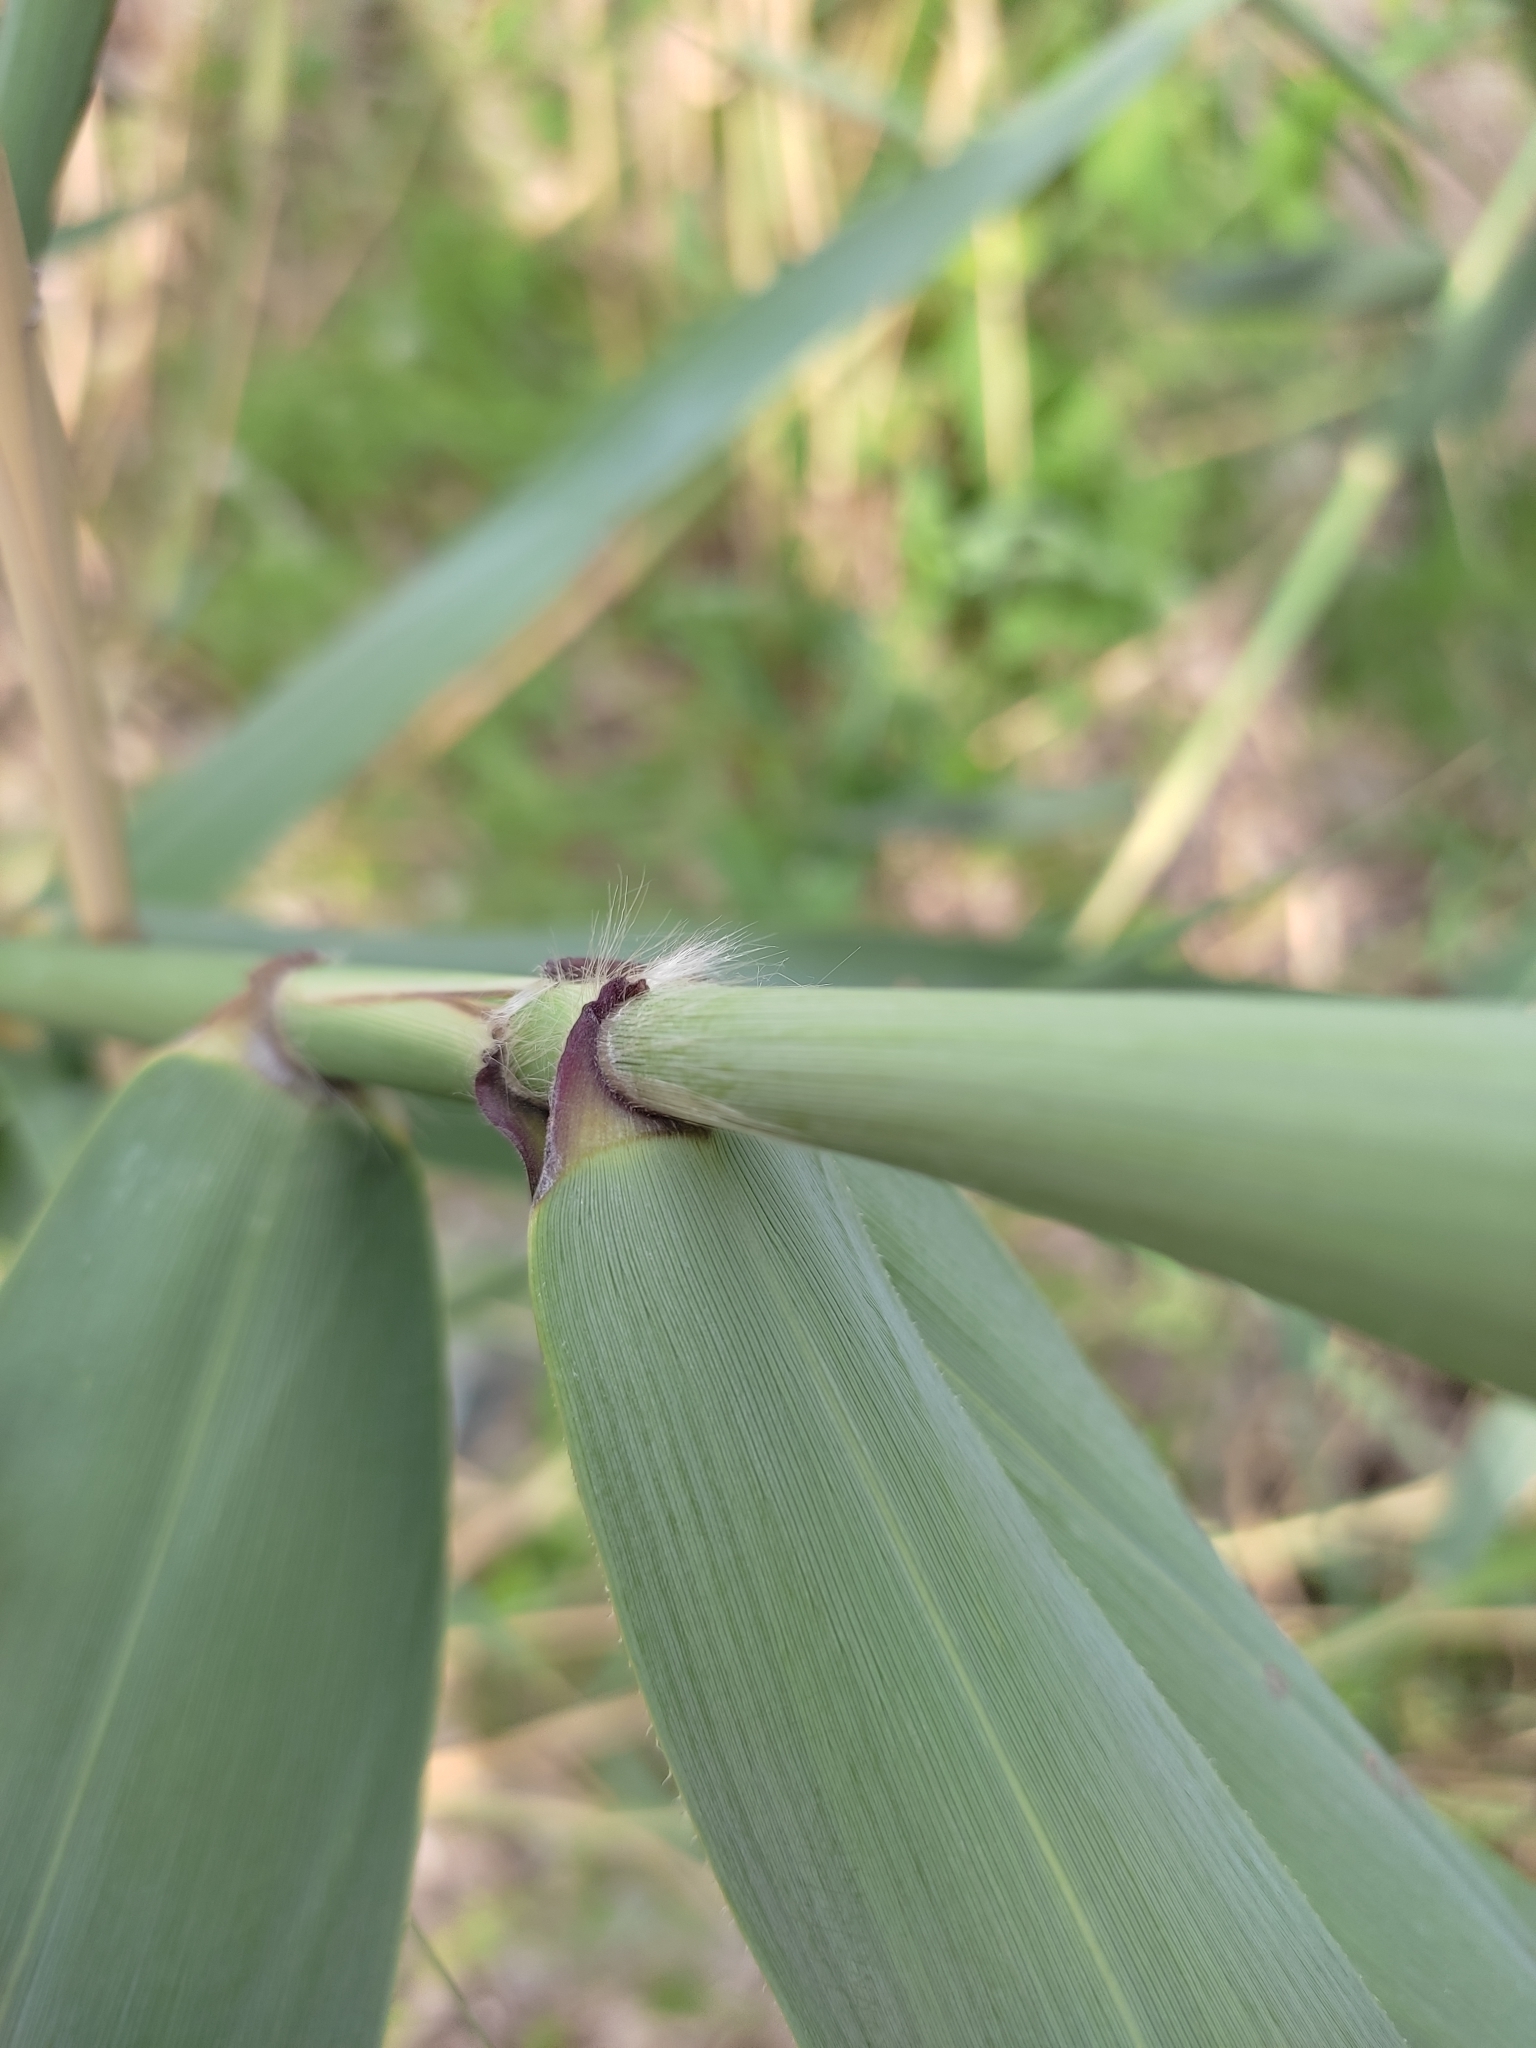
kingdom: Plantae
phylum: Tracheophyta
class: Liliopsida
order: Poales
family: Poaceae
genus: Phragmites
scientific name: Phragmites australis
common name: Common reed
